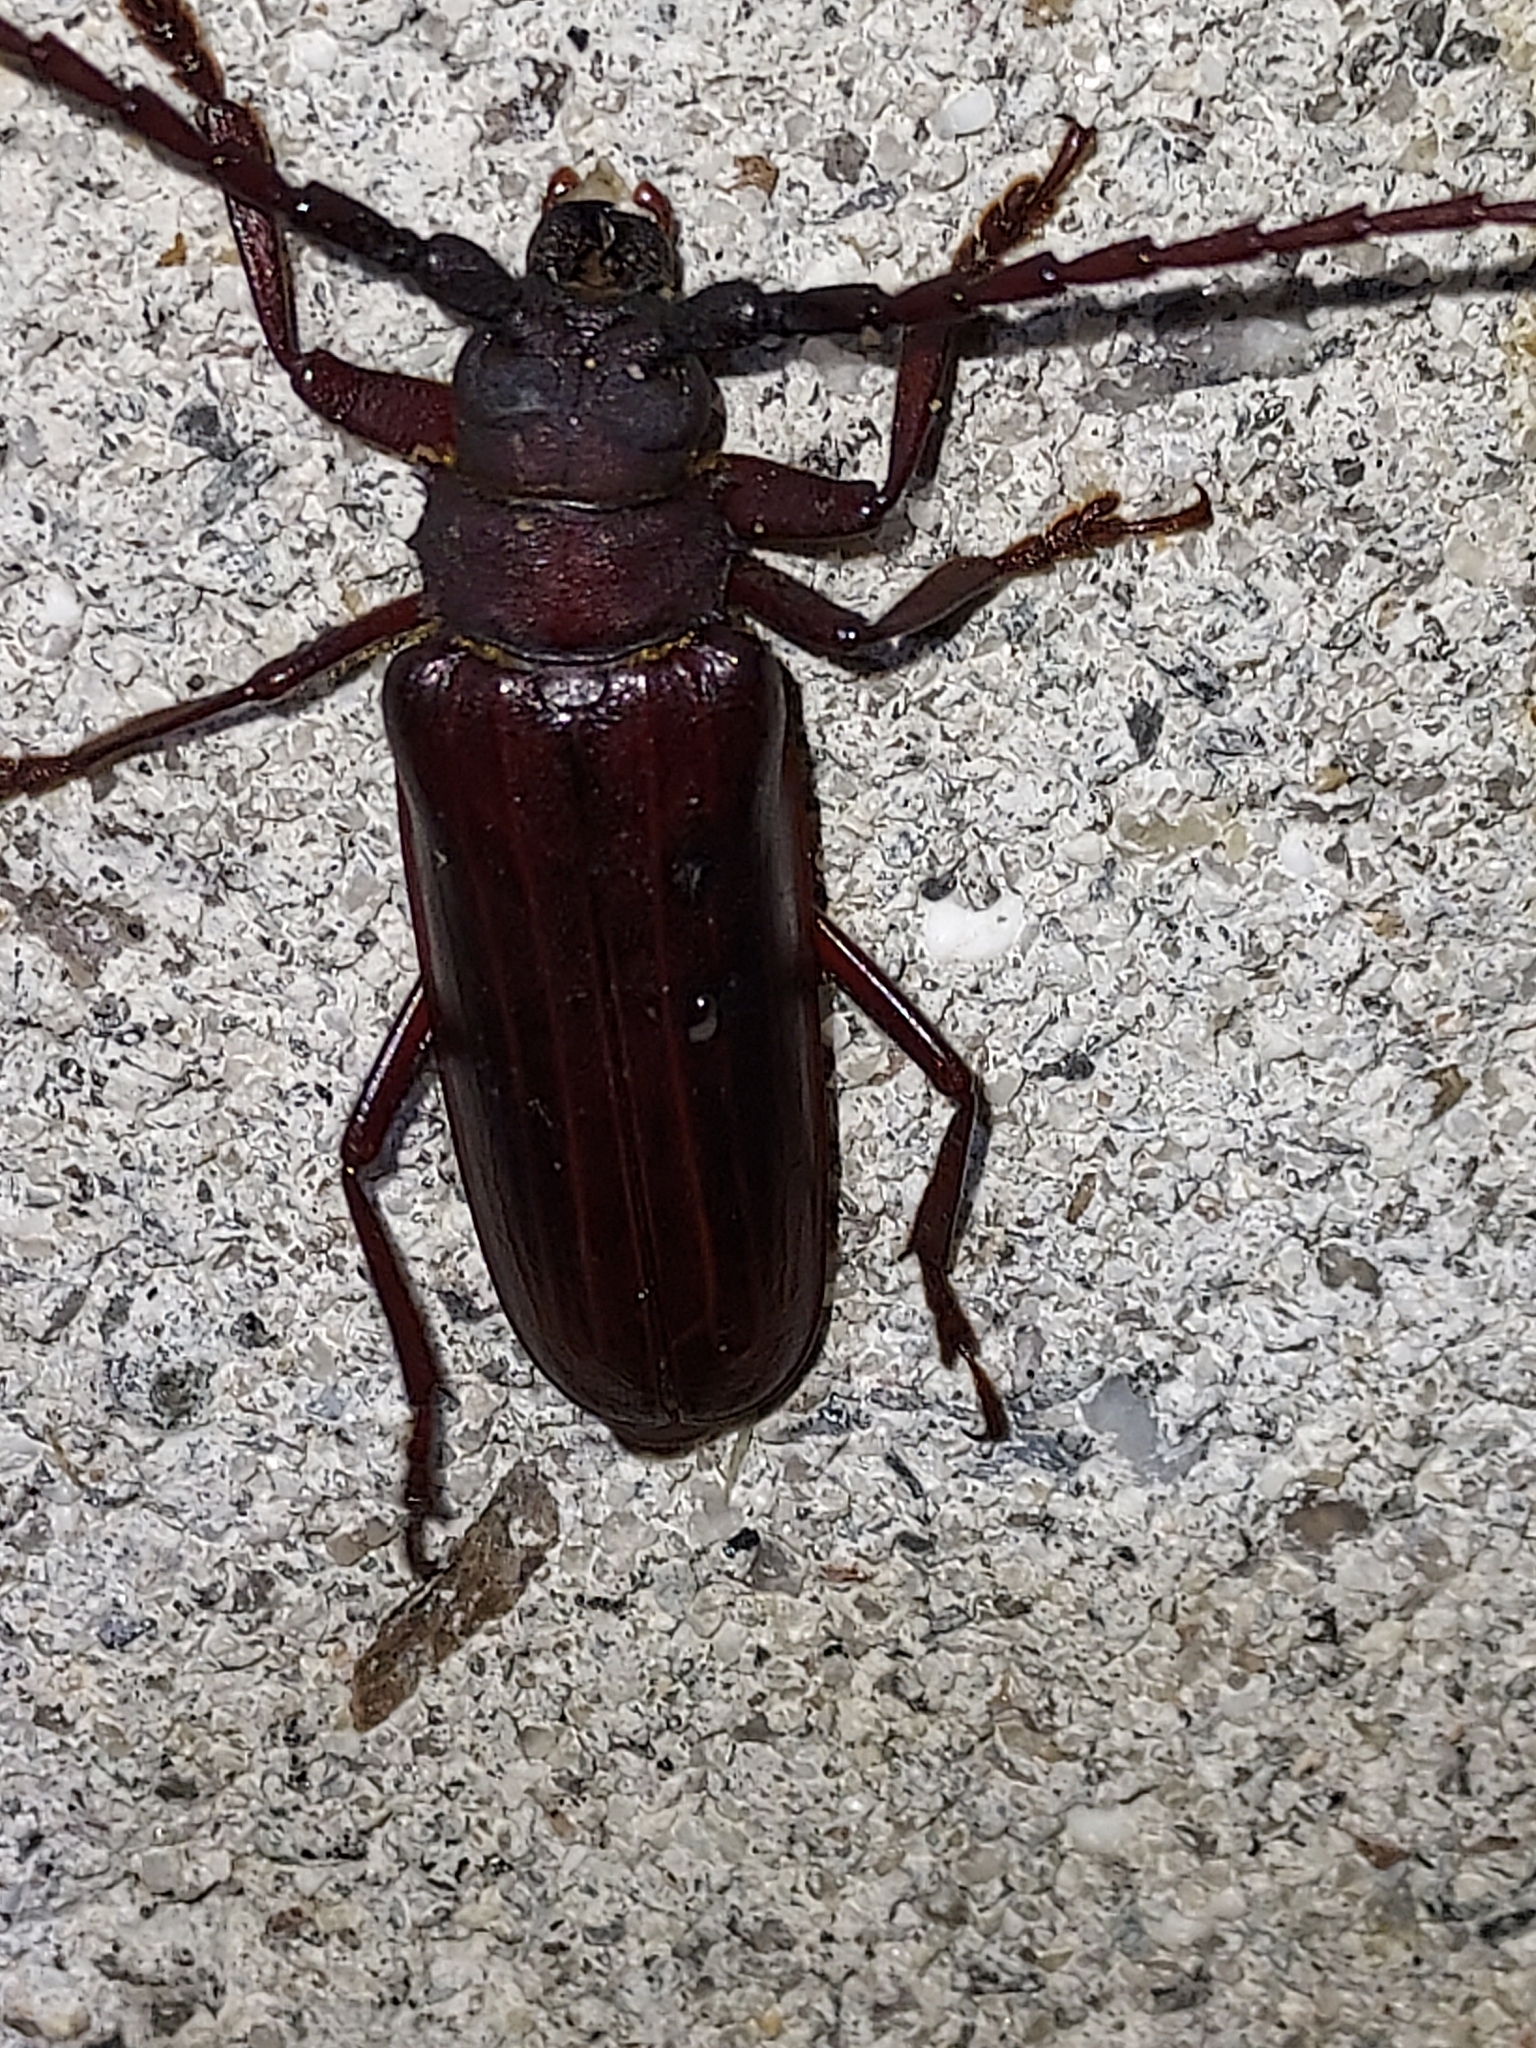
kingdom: Animalia
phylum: Arthropoda
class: Insecta
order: Coleoptera
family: Cerambycidae
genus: Orthosoma
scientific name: Orthosoma brunneum
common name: Brown prionid beetle
